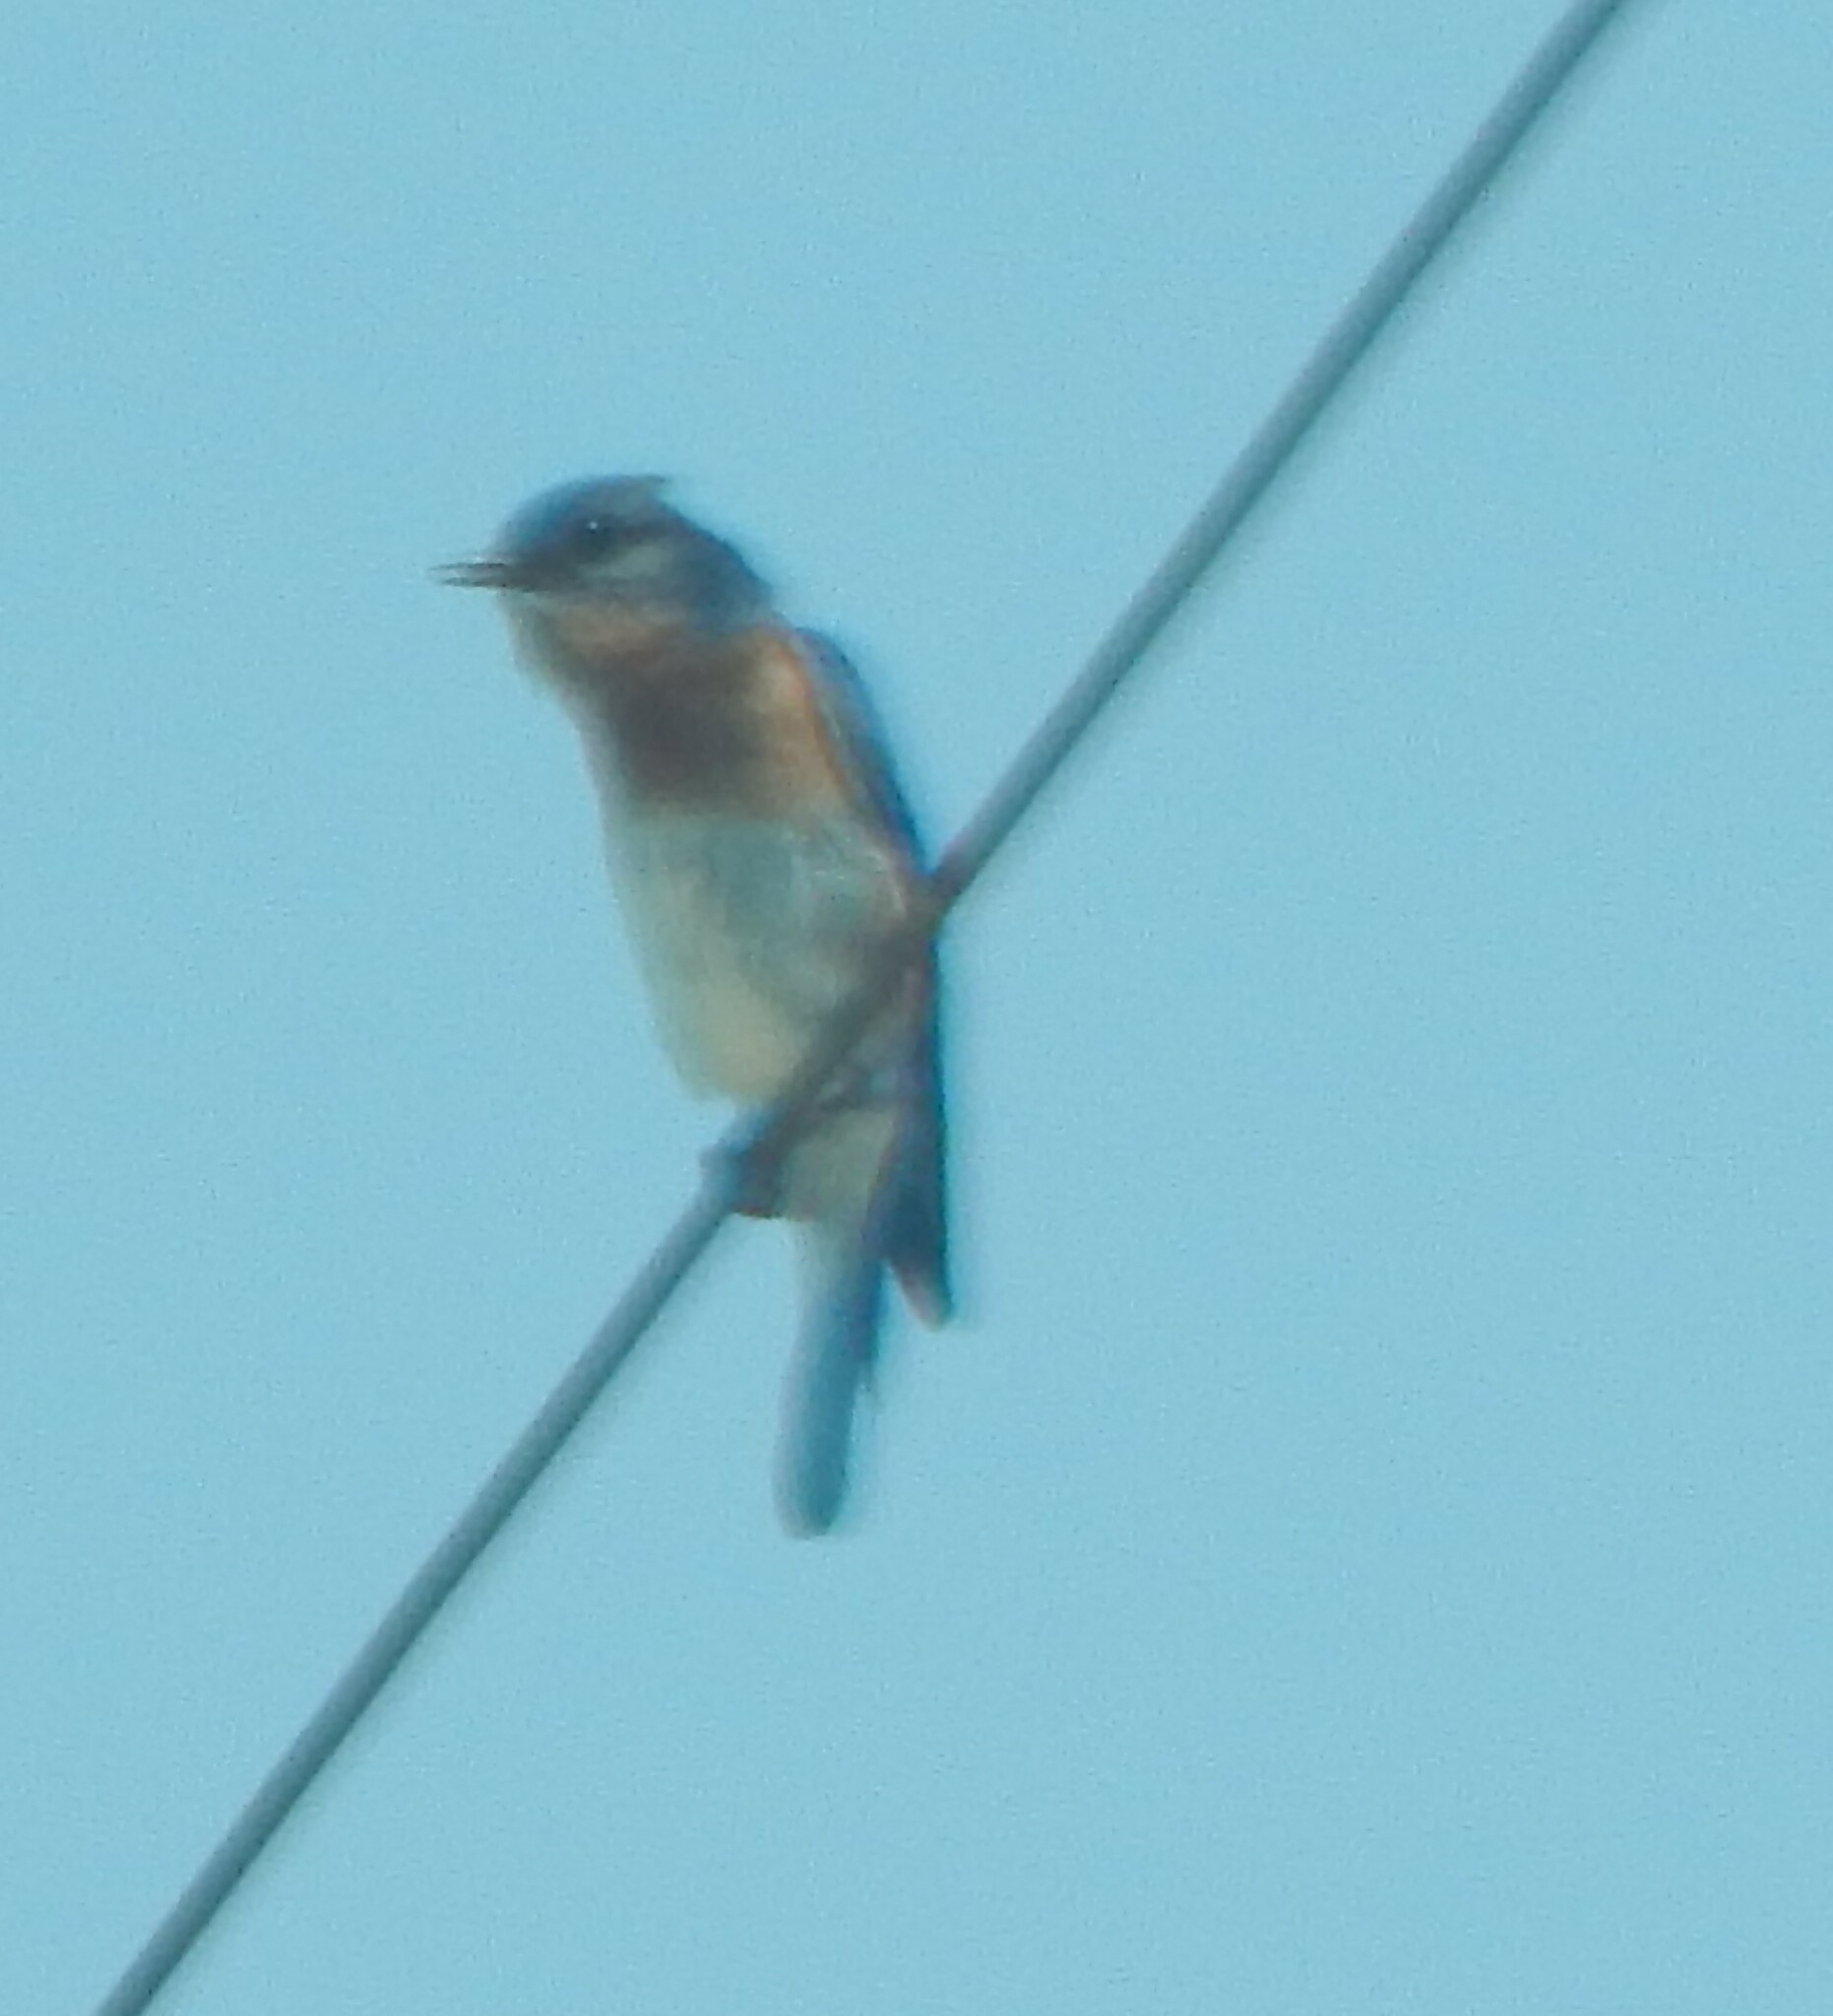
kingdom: Animalia
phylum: Chordata
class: Aves
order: Passeriformes
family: Turdidae
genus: Sialia
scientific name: Sialia sialis
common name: Eastern bluebird
